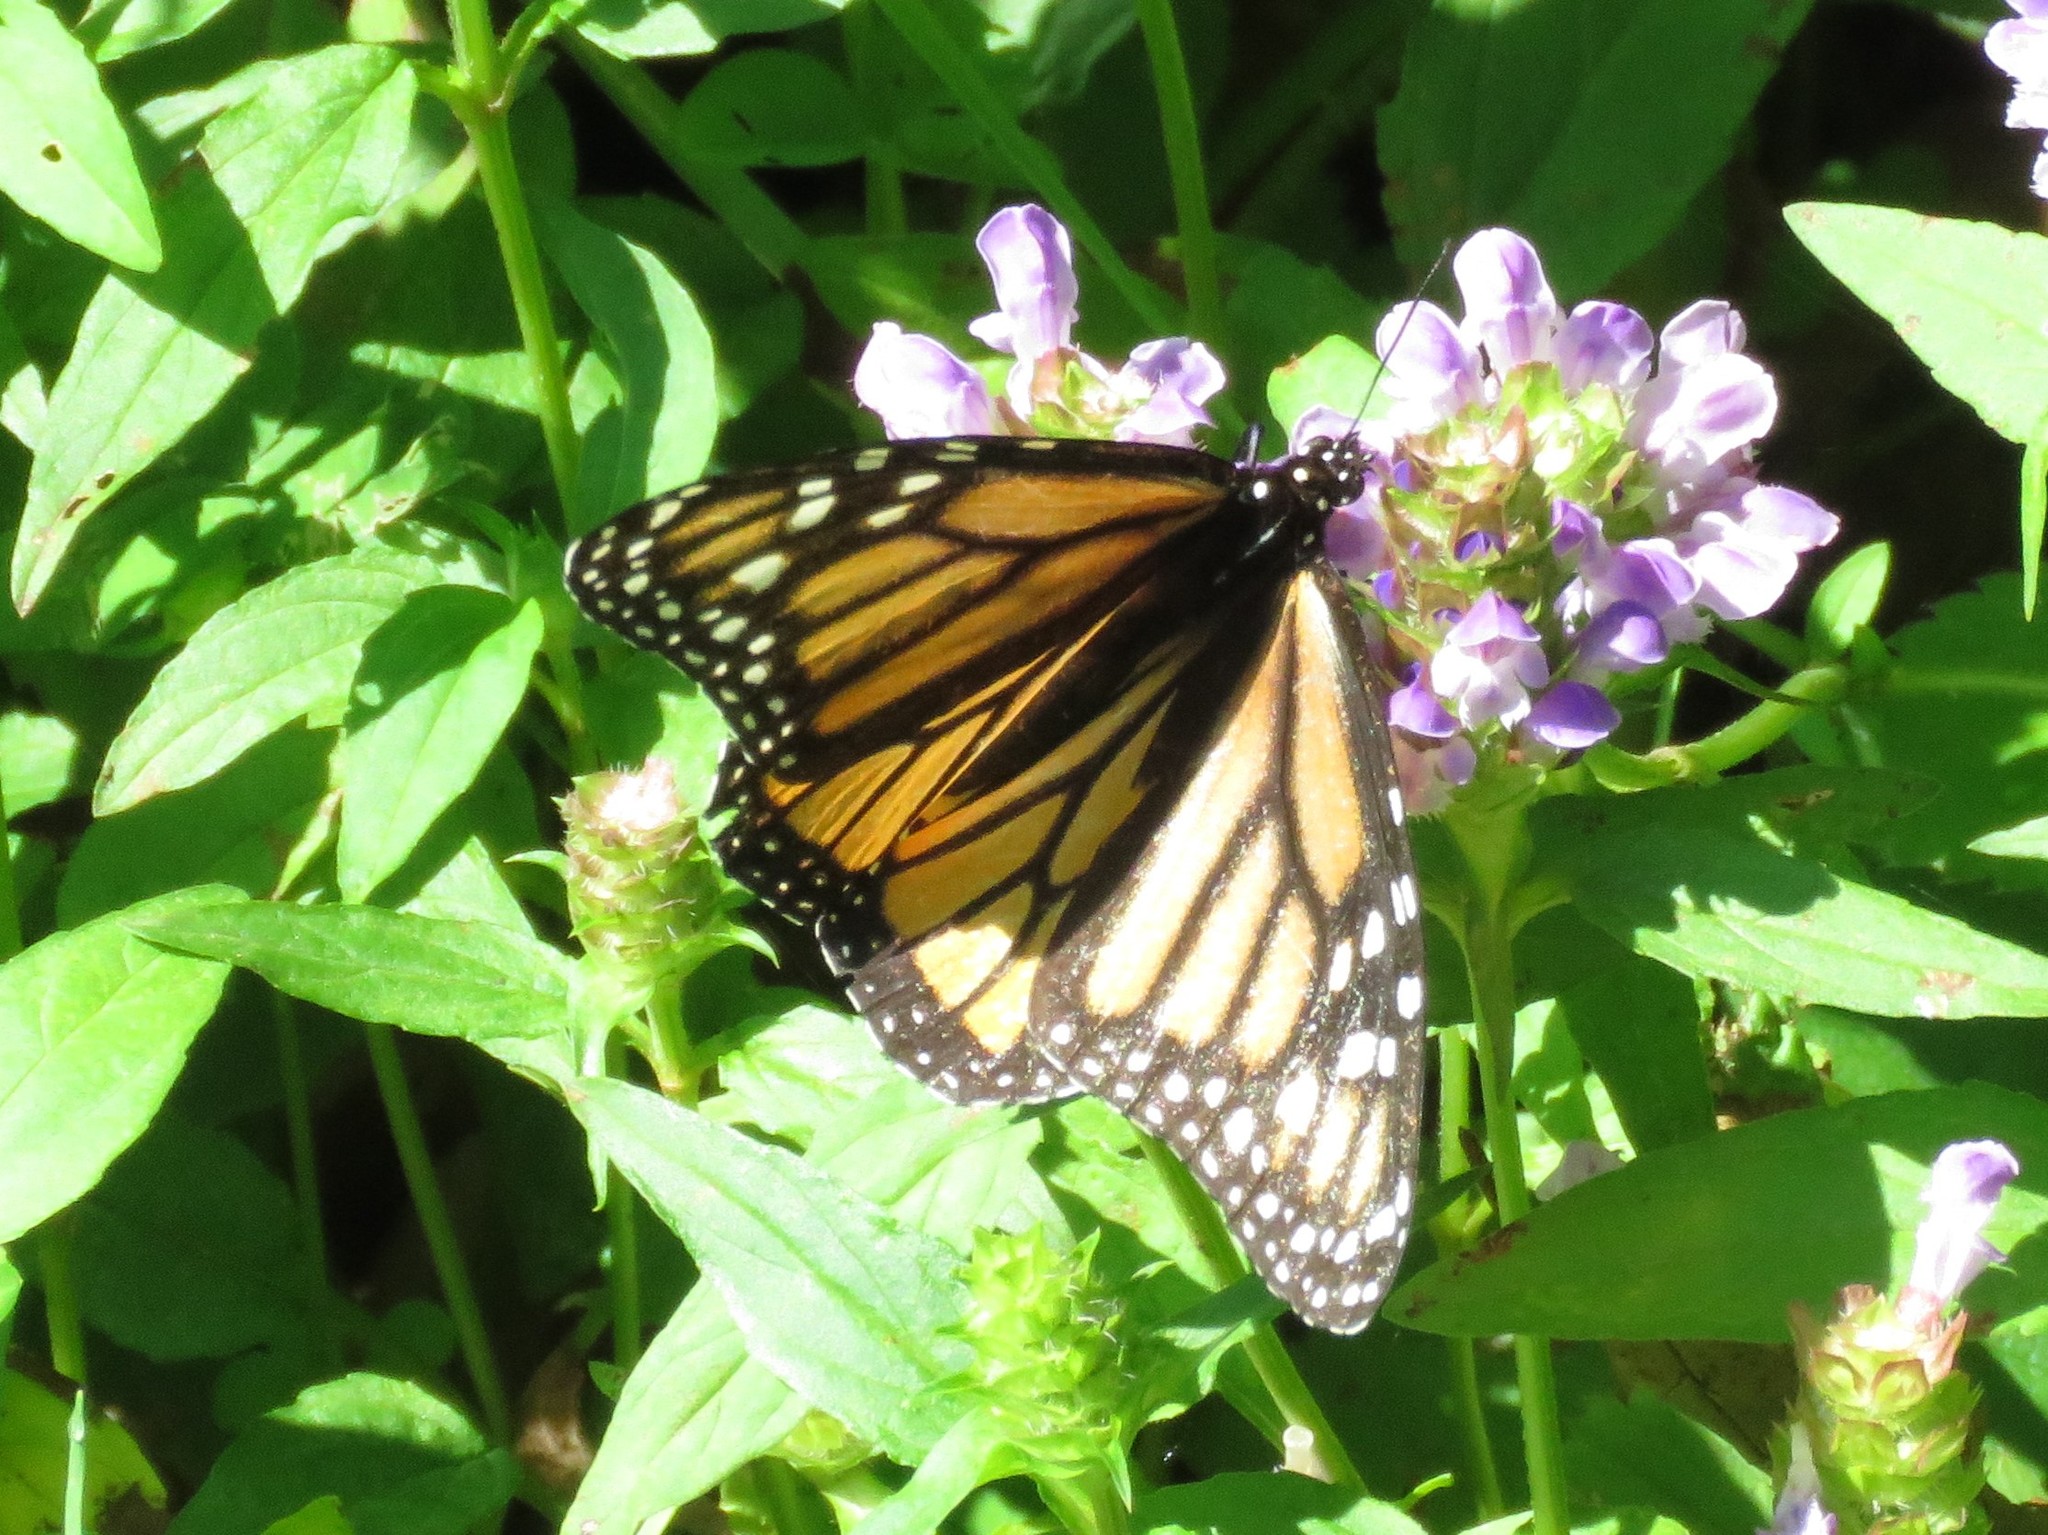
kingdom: Animalia
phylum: Arthropoda
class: Insecta
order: Lepidoptera
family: Nymphalidae
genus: Danaus
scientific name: Danaus plexippus
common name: Monarch
